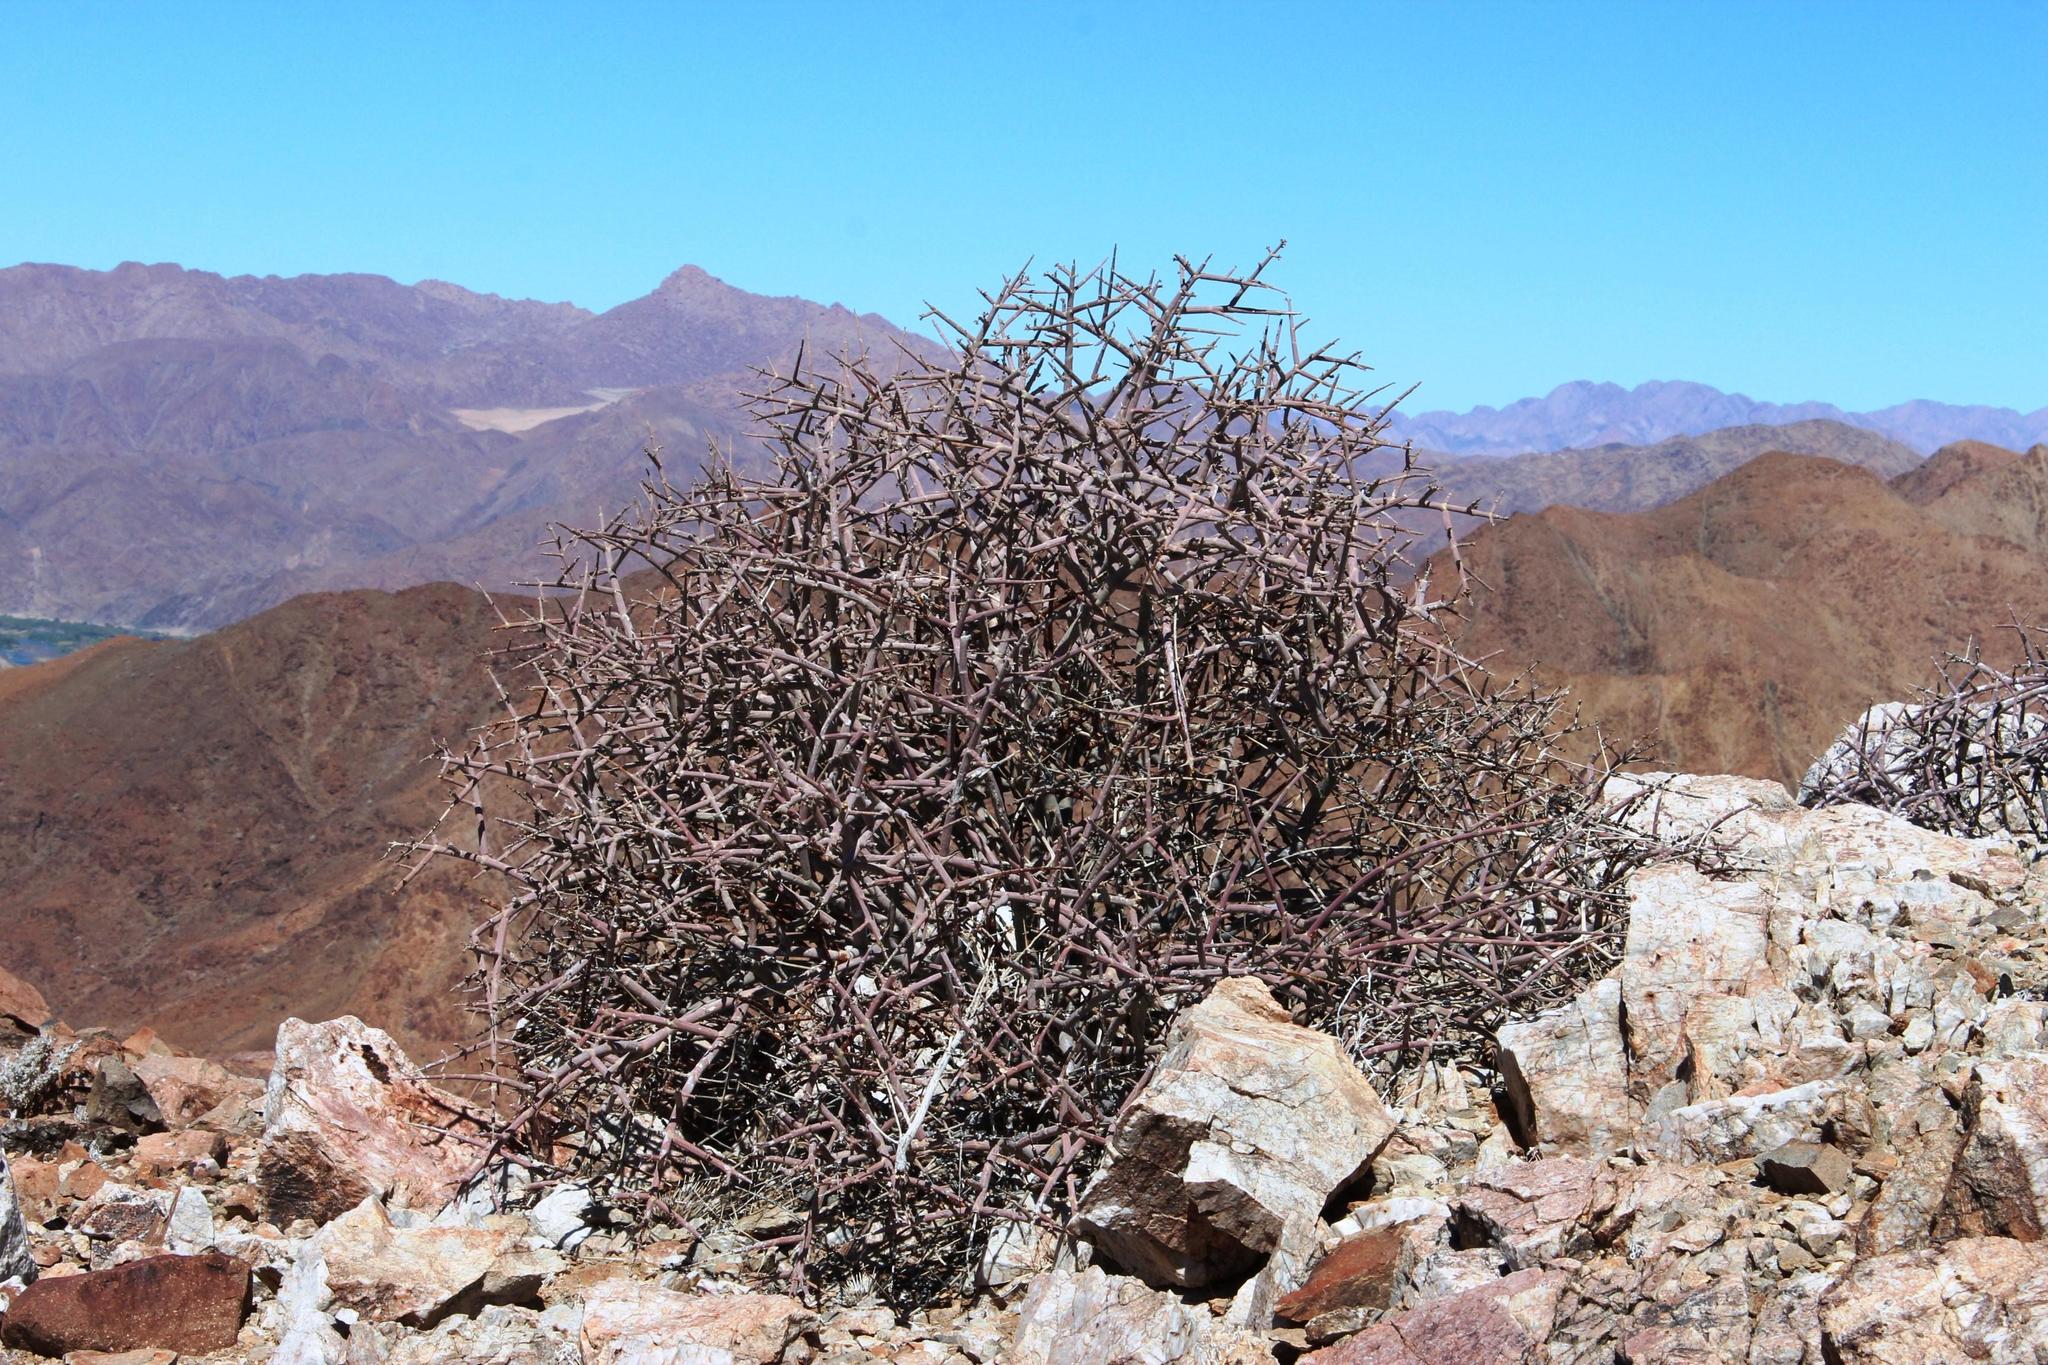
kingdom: Plantae
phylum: Tracheophyta
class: Magnoliopsida
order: Malpighiales
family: Euphorbiaceae
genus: Euphorbia
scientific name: Euphorbia spinea
